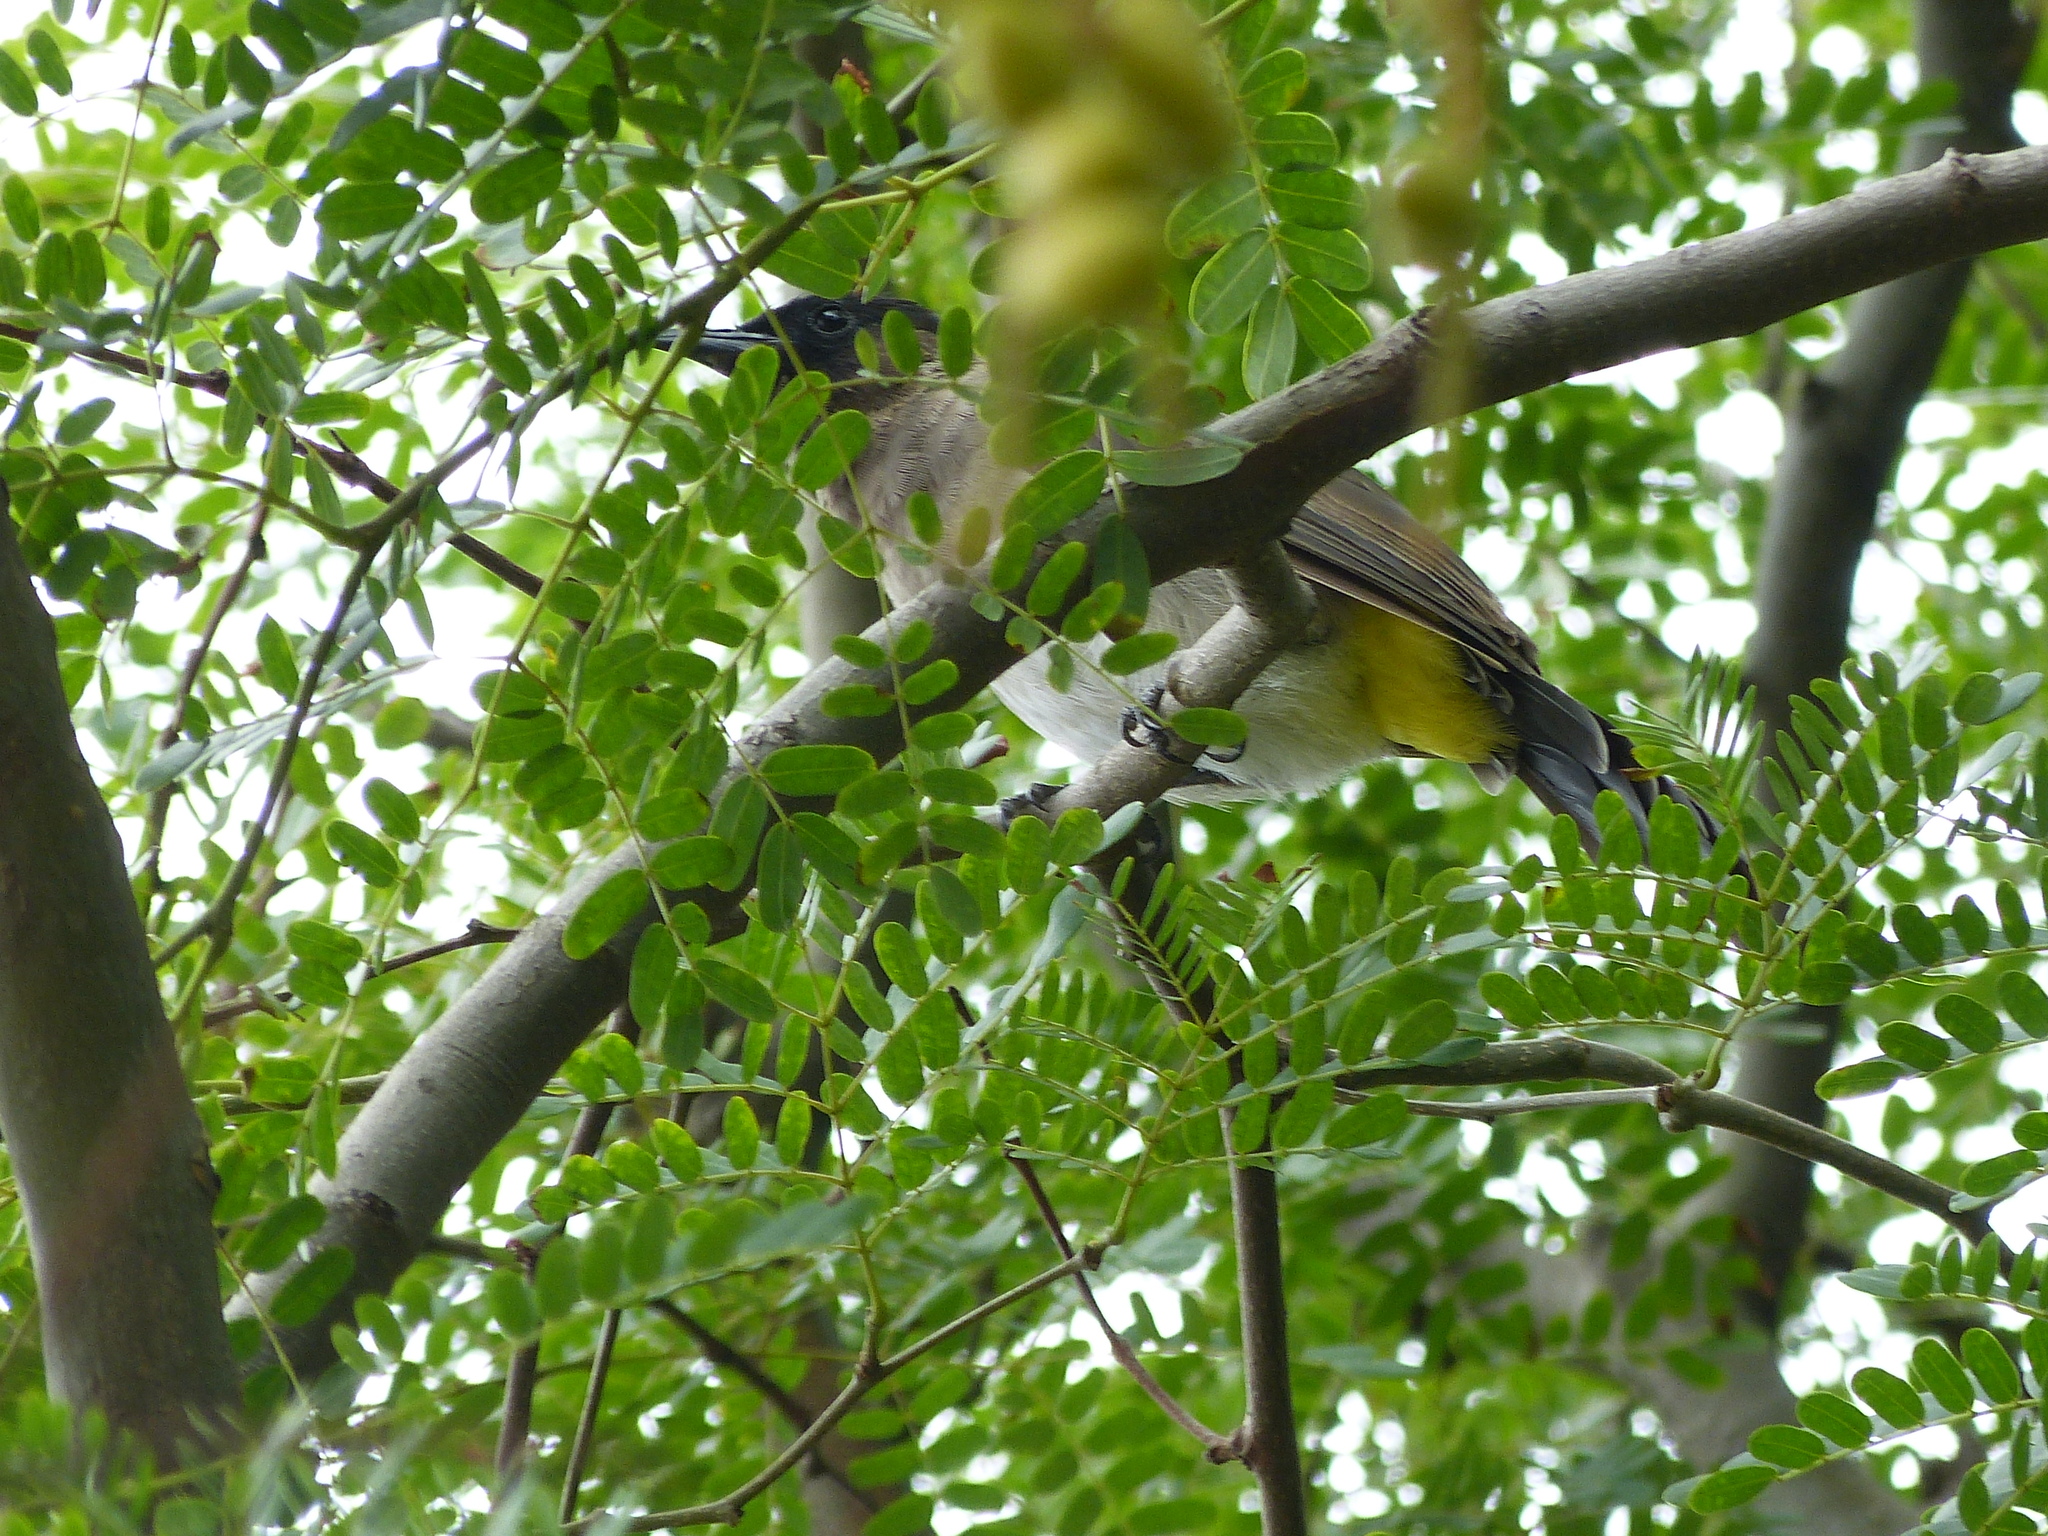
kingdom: Animalia
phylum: Chordata
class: Aves
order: Passeriformes
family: Pycnonotidae
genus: Pycnonotus
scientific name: Pycnonotus barbatus
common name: Common bulbul
